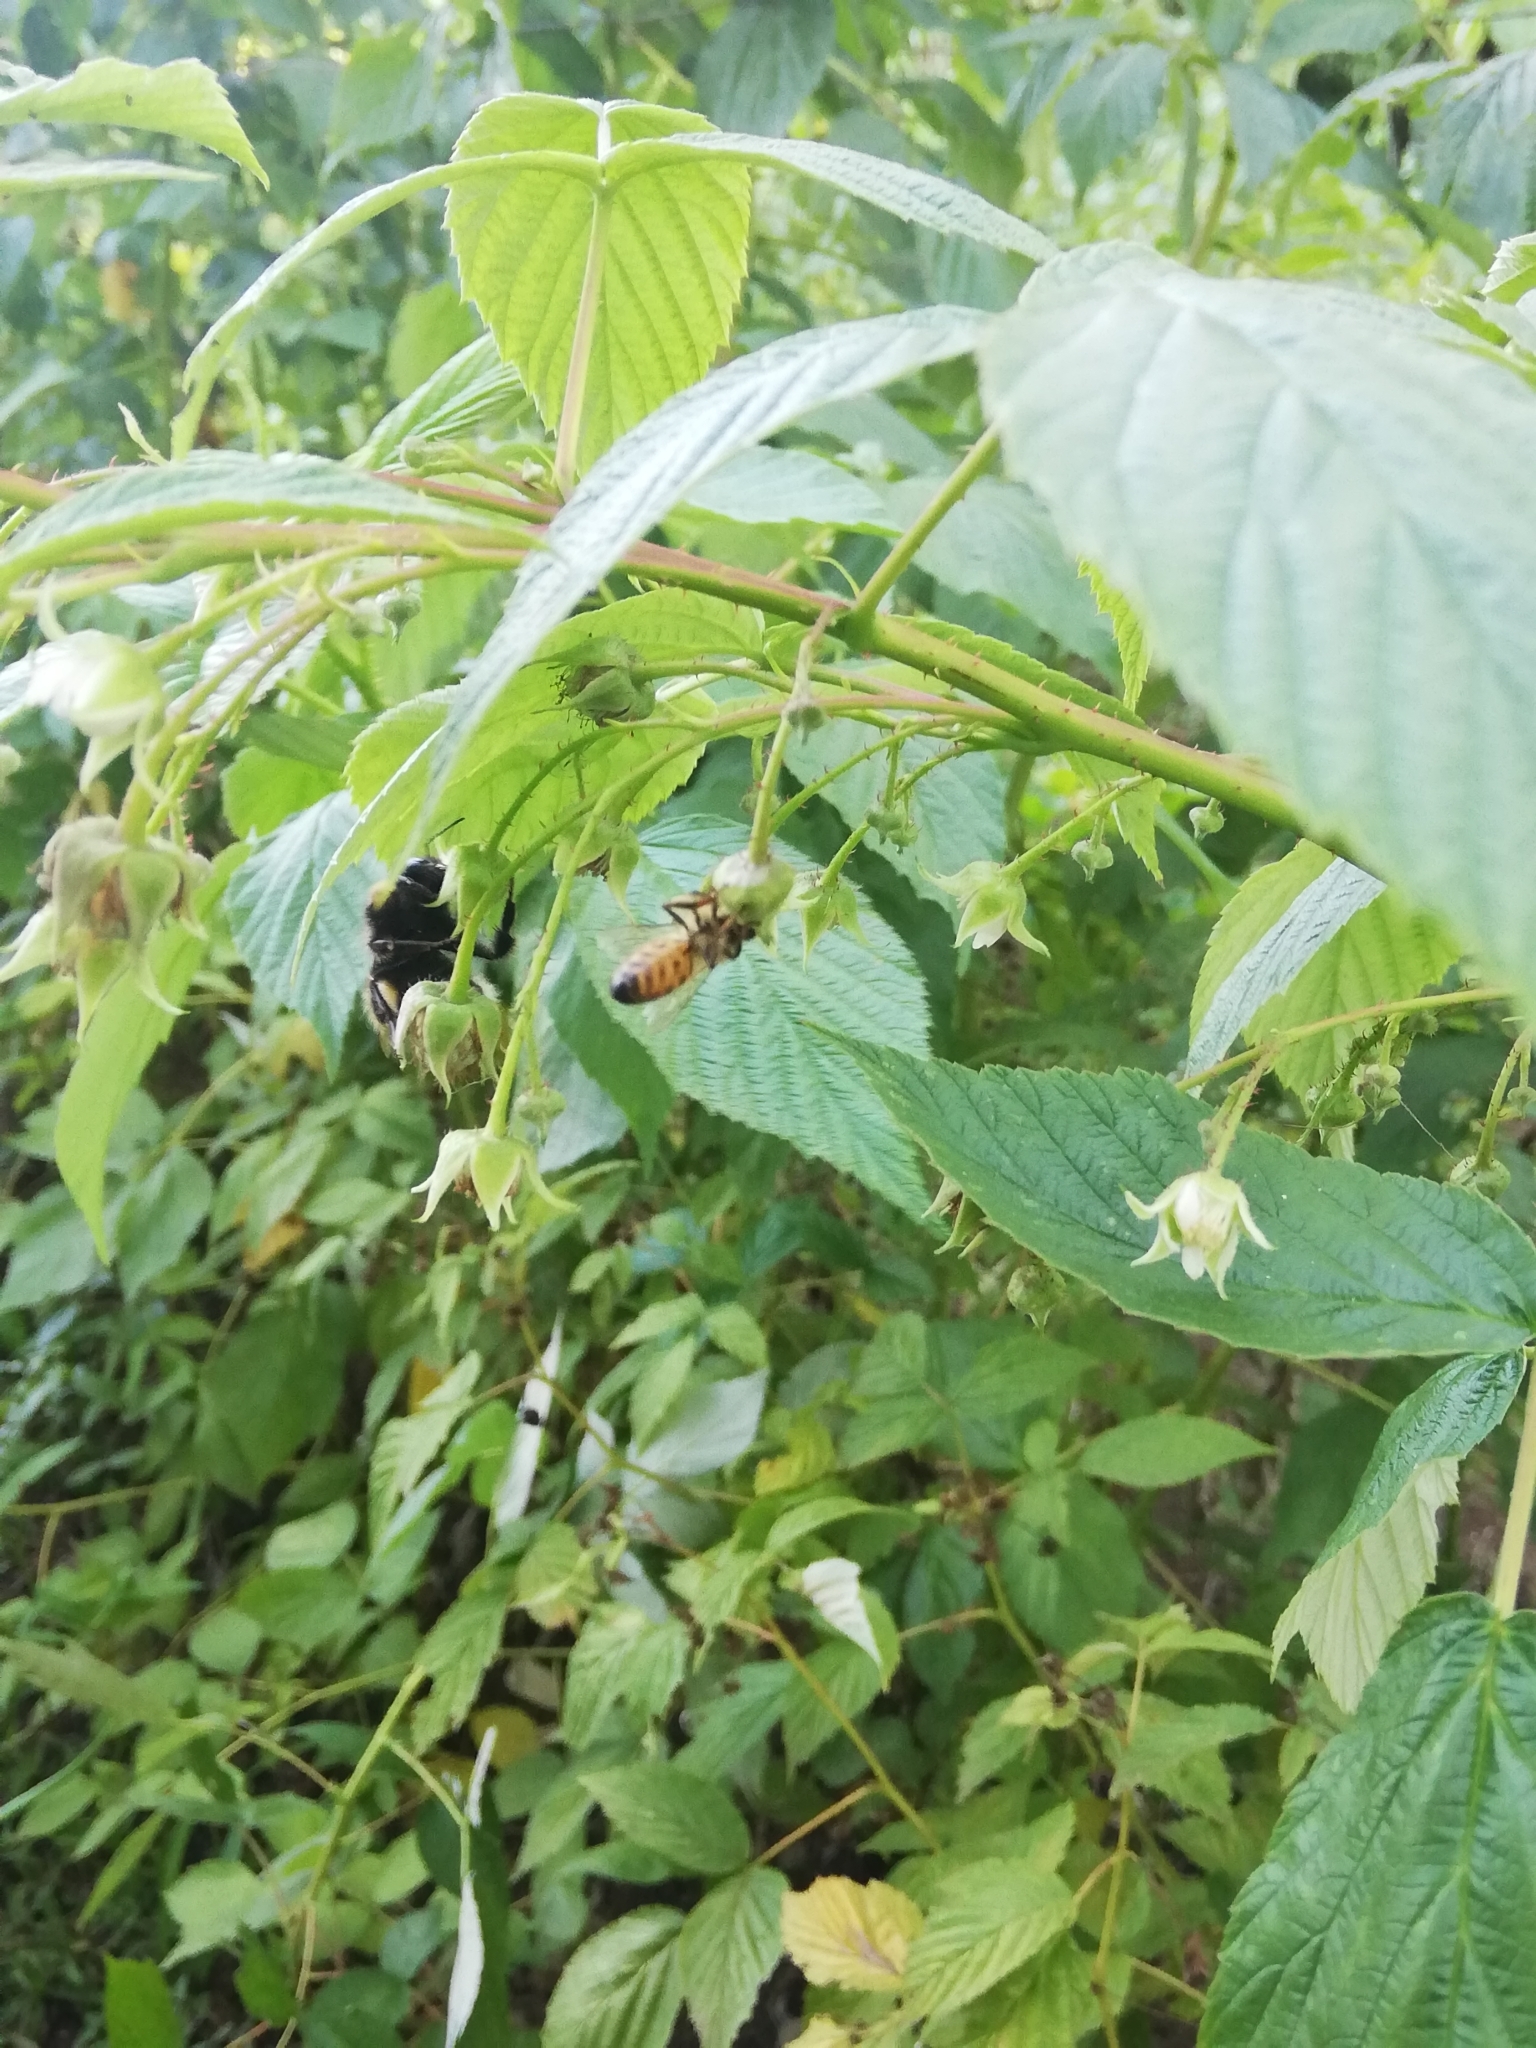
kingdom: Animalia
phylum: Arthropoda
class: Insecta
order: Hymenoptera
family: Apidae
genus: Apis
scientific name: Apis mellifera
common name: Honey bee
